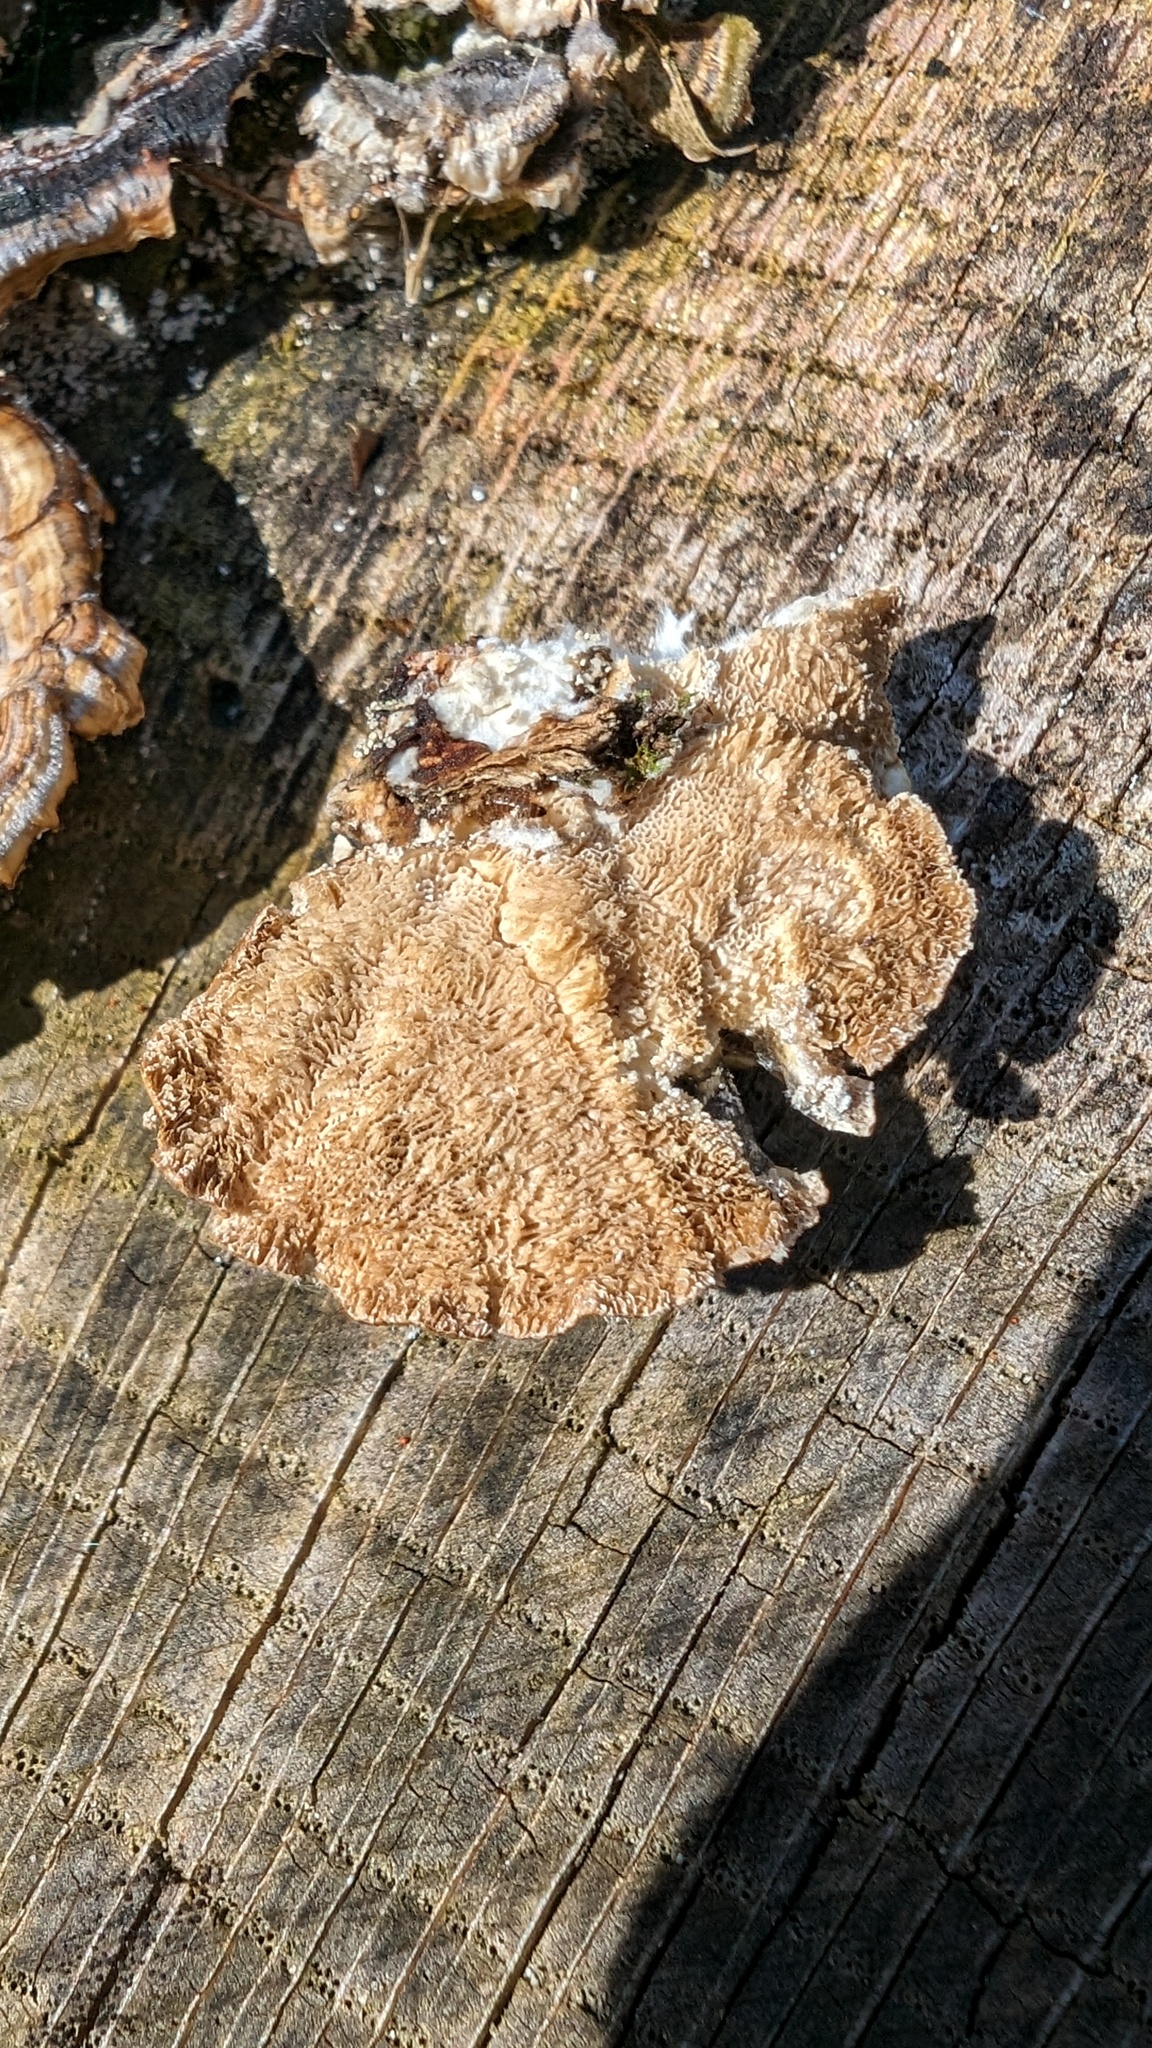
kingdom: Fungi
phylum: Basidiomycota
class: Agaricomycetes
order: Polyporales
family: Polyporaceae
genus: Trametes
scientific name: Trametes versicolor
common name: Turkeytail
